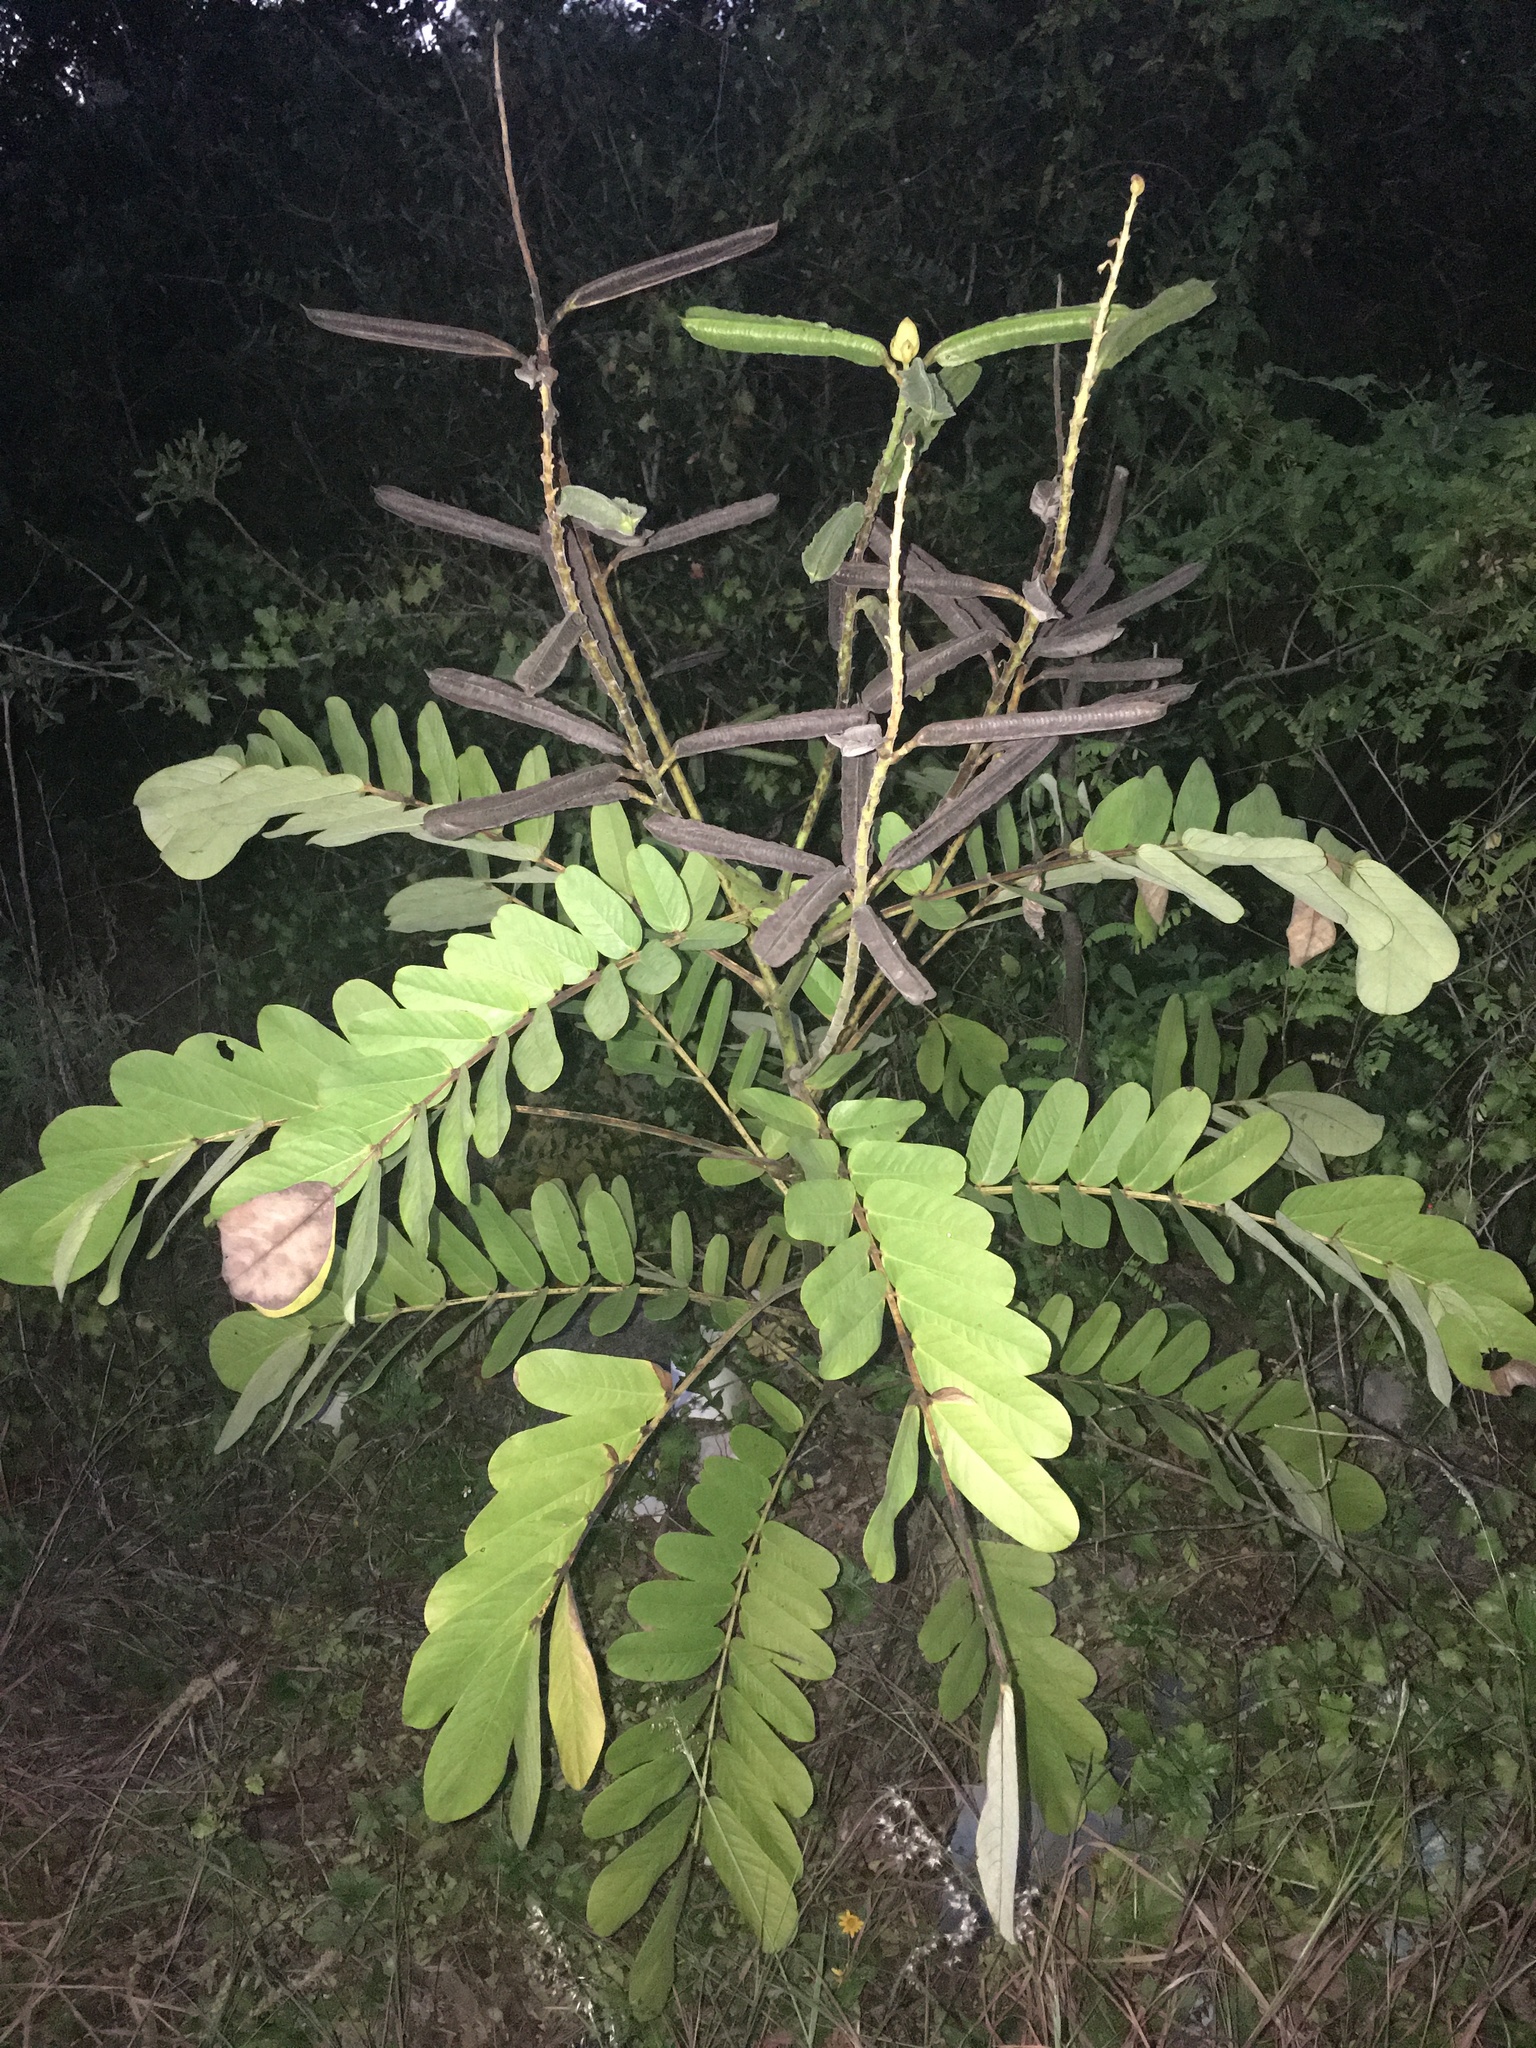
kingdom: Plantae
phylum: Tracheophyta
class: Magnoliopsida
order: Fabales
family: Fabaceae
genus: Senna
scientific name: Senna alata
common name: Emperor's candlesticks
